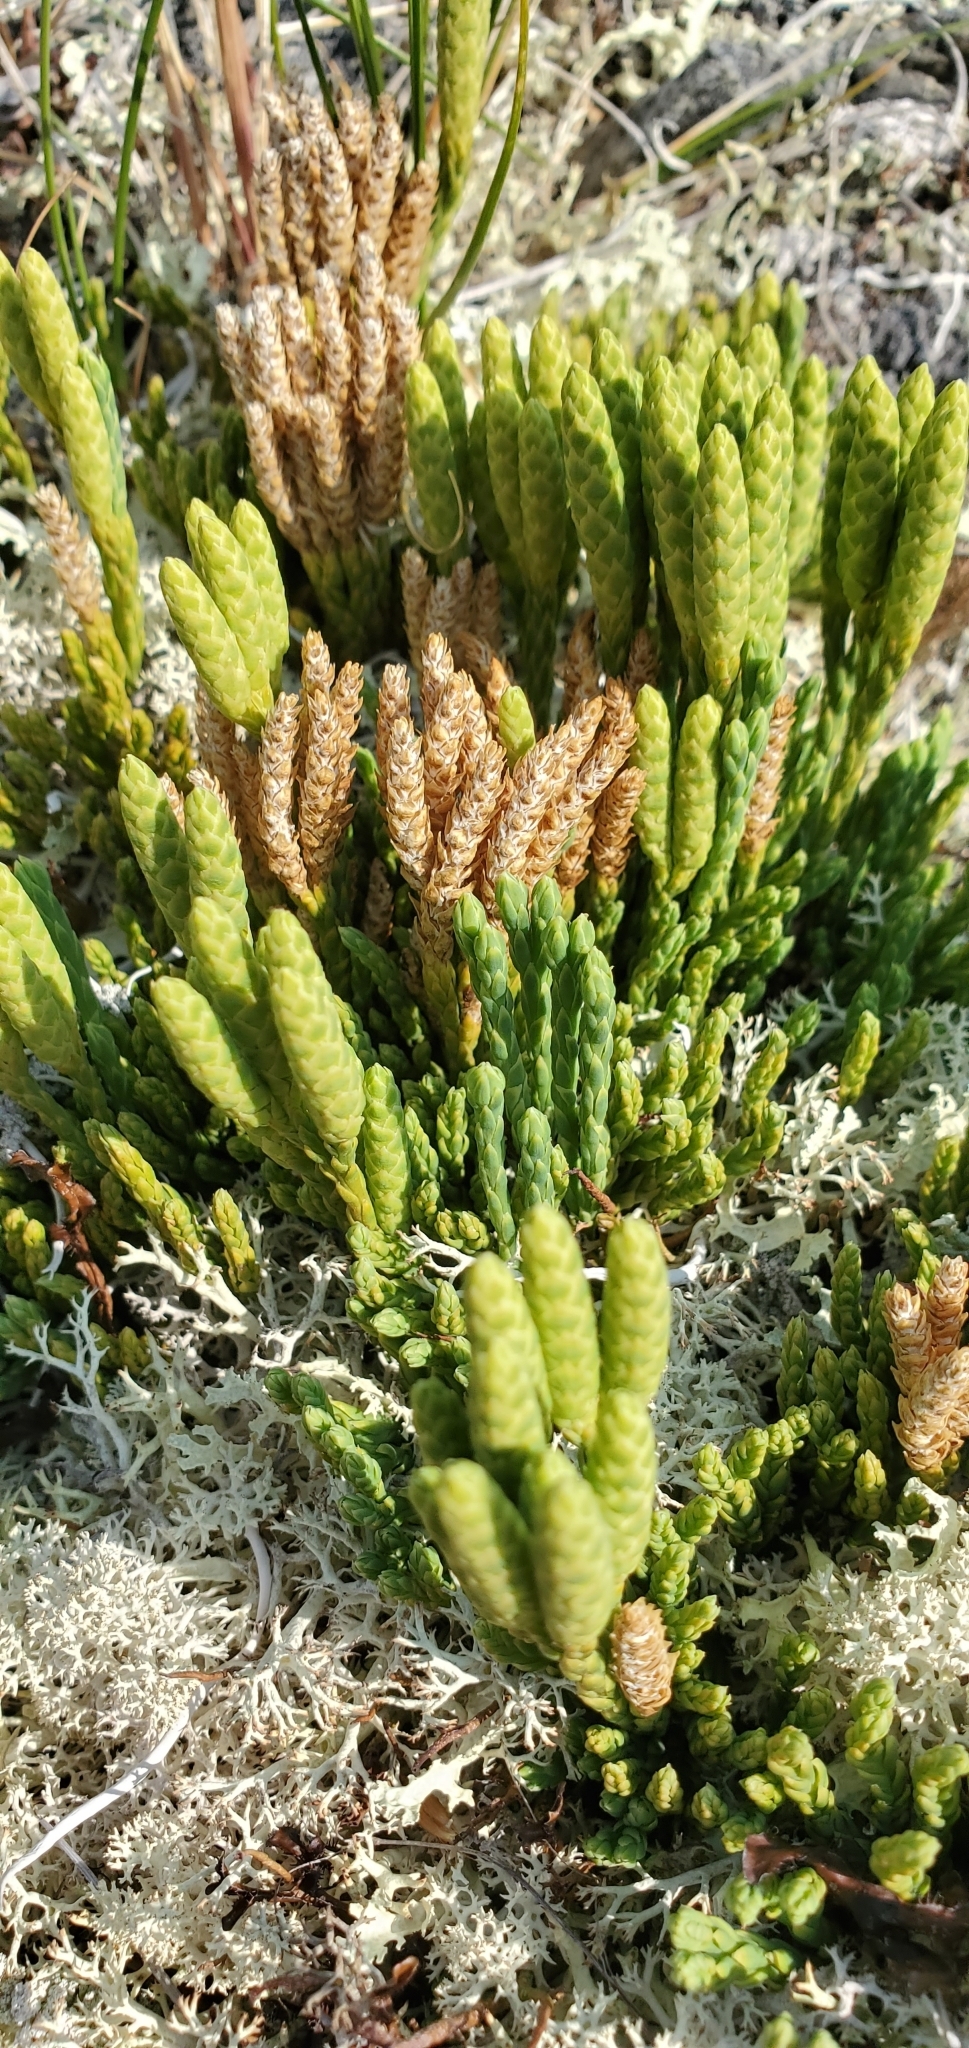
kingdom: Plantae
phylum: Tracheophyta
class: Lycopodiopsida
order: Lycopodiales
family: Lycopodiaceae
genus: Diphasiastrum
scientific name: Diphasiastrum alpinum
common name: Alpine clubmoss
